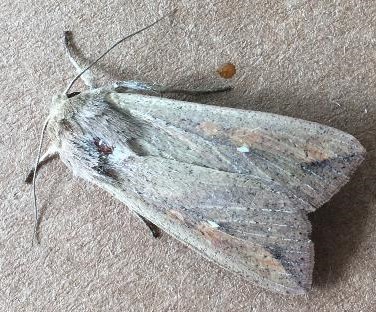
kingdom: Animalia
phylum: Arthropoda
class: Insecta
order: Lepidoptera
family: Noctuidae
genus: Mythimna
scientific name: Mythimna unipuncta
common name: White-speck
